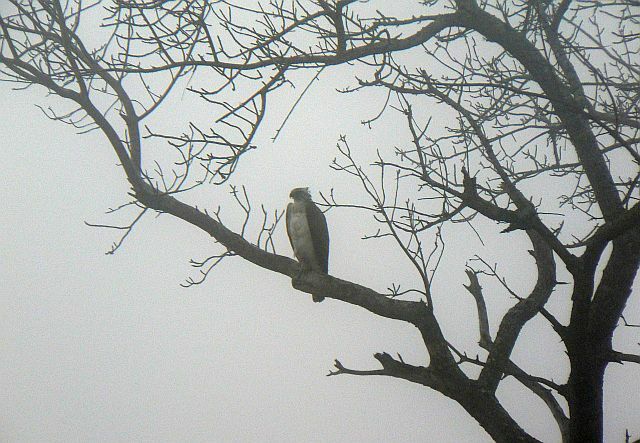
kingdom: Animalia
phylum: Chordata
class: Aves
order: Accipitriformes
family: Accipitridae
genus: Stephanoaetus
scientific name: Stephanoaetus coronatus
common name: Crowned eagle
